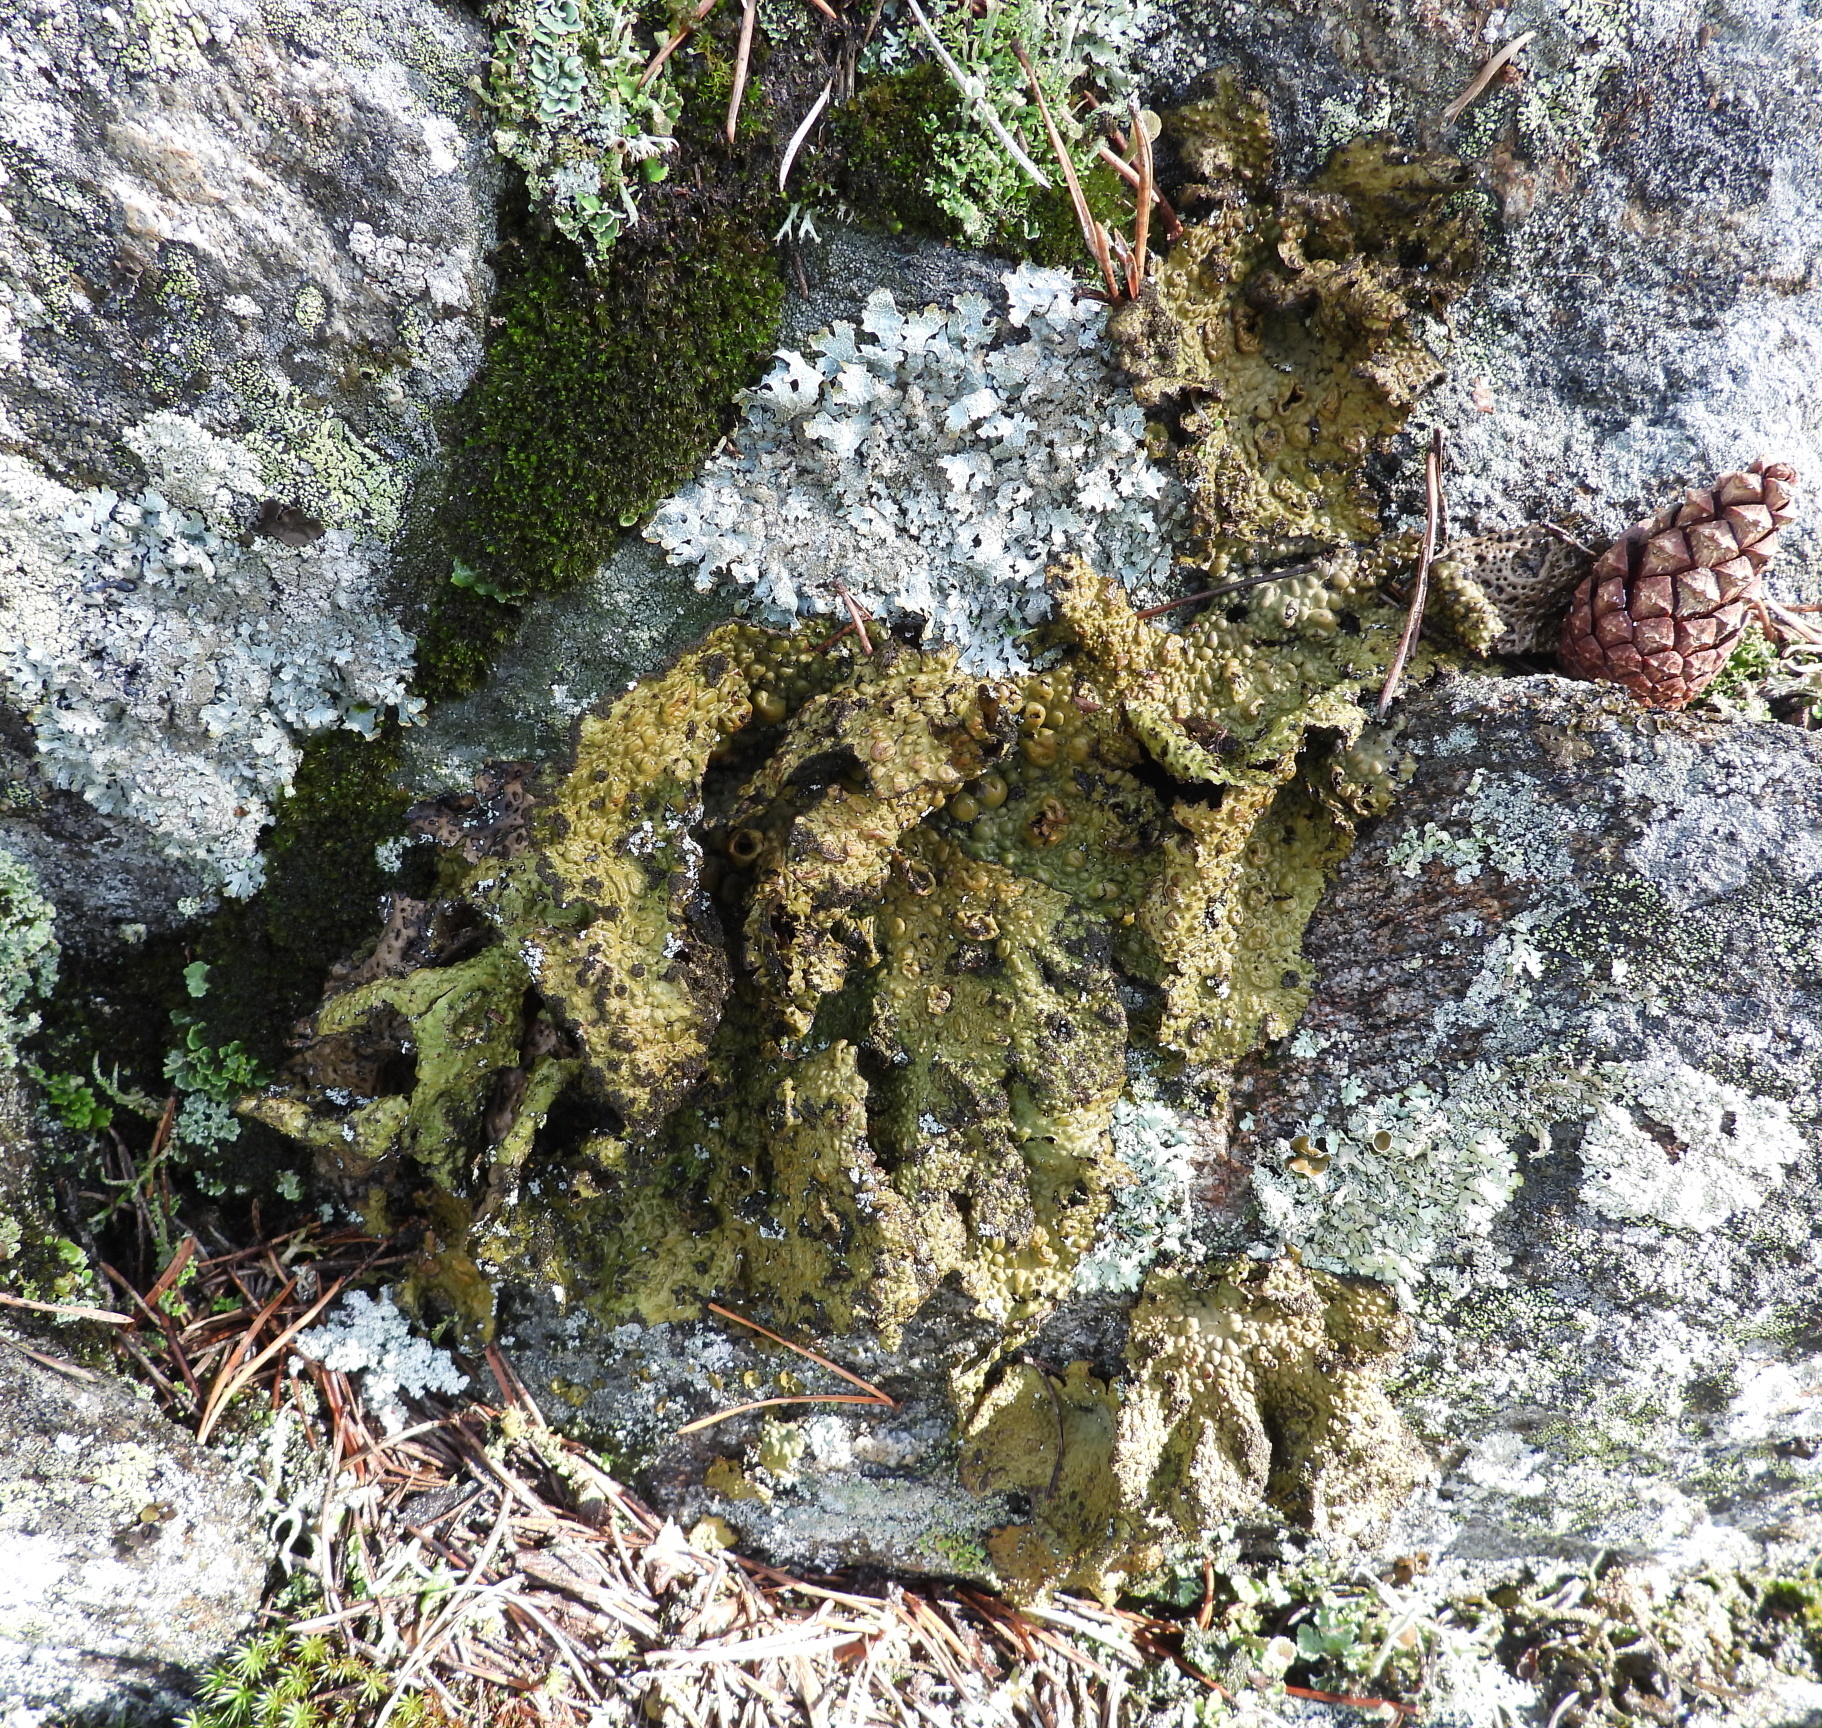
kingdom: Fungi
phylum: Ascomycota
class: Lecanoromycetes
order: Umbilicariales
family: Umbilicariaceae
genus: Lasallia
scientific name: Lasallia pustulata
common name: Blistered toadskin lichen
